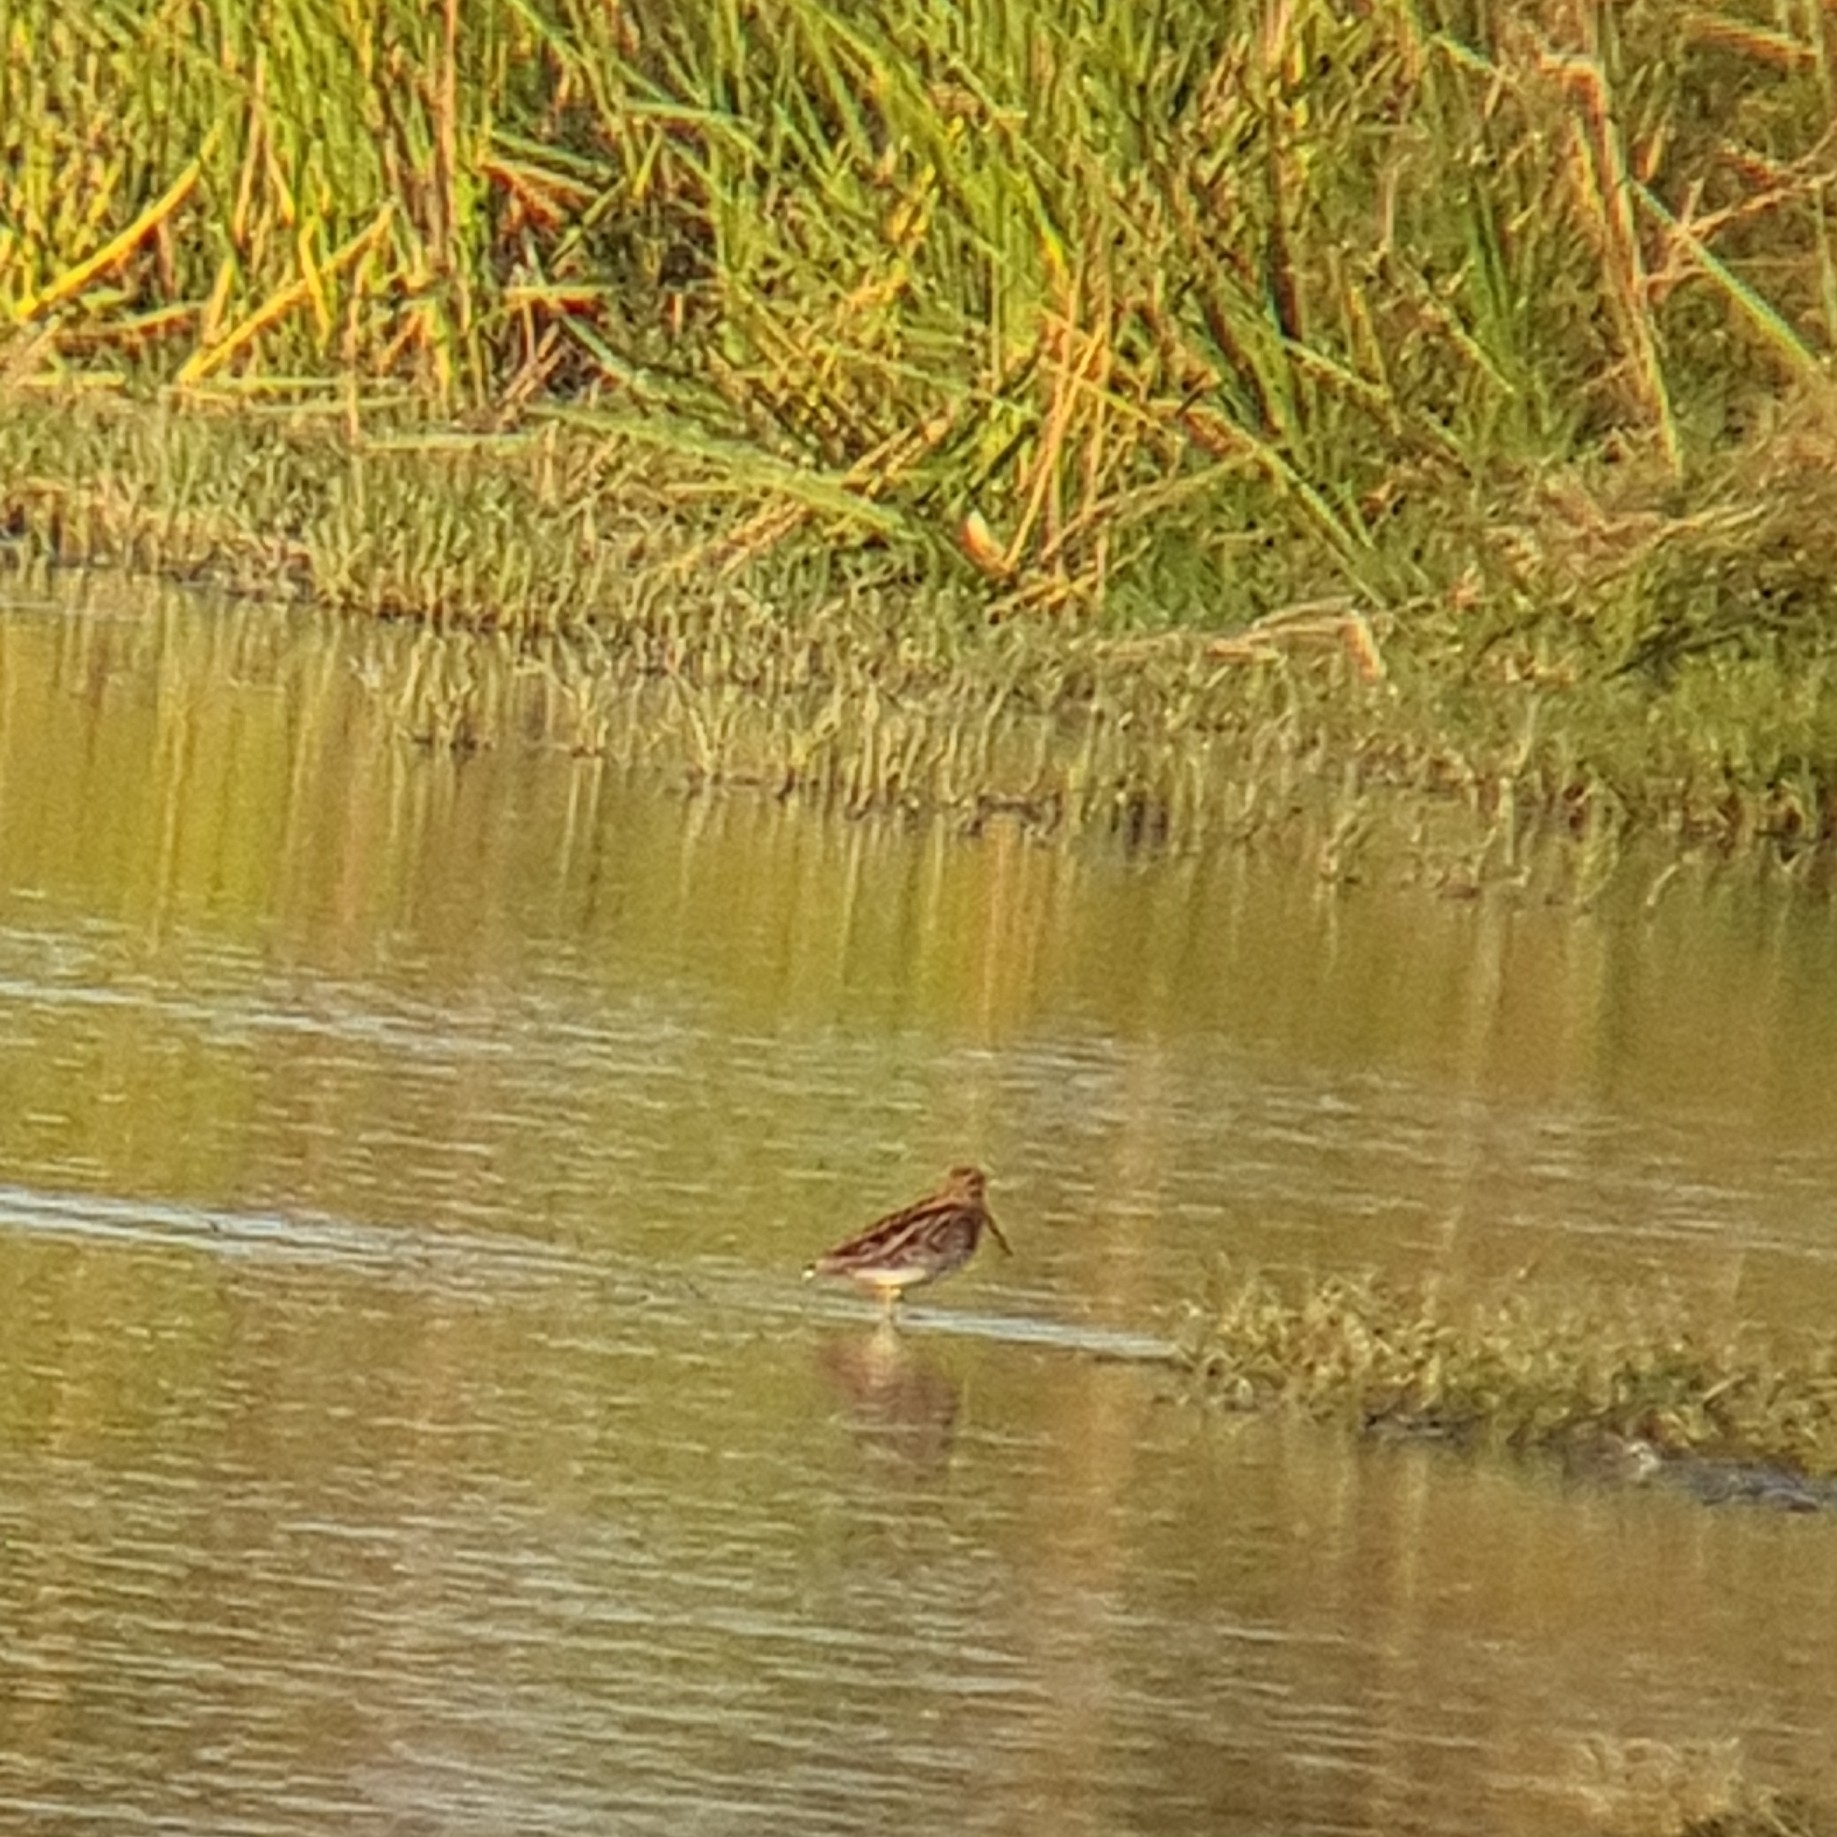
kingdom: Animalia
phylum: Chordata
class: Aves
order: Charadriiformes
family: Scolopacidae
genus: Gallinago
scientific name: Gallinago gallinago
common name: Common snipe
